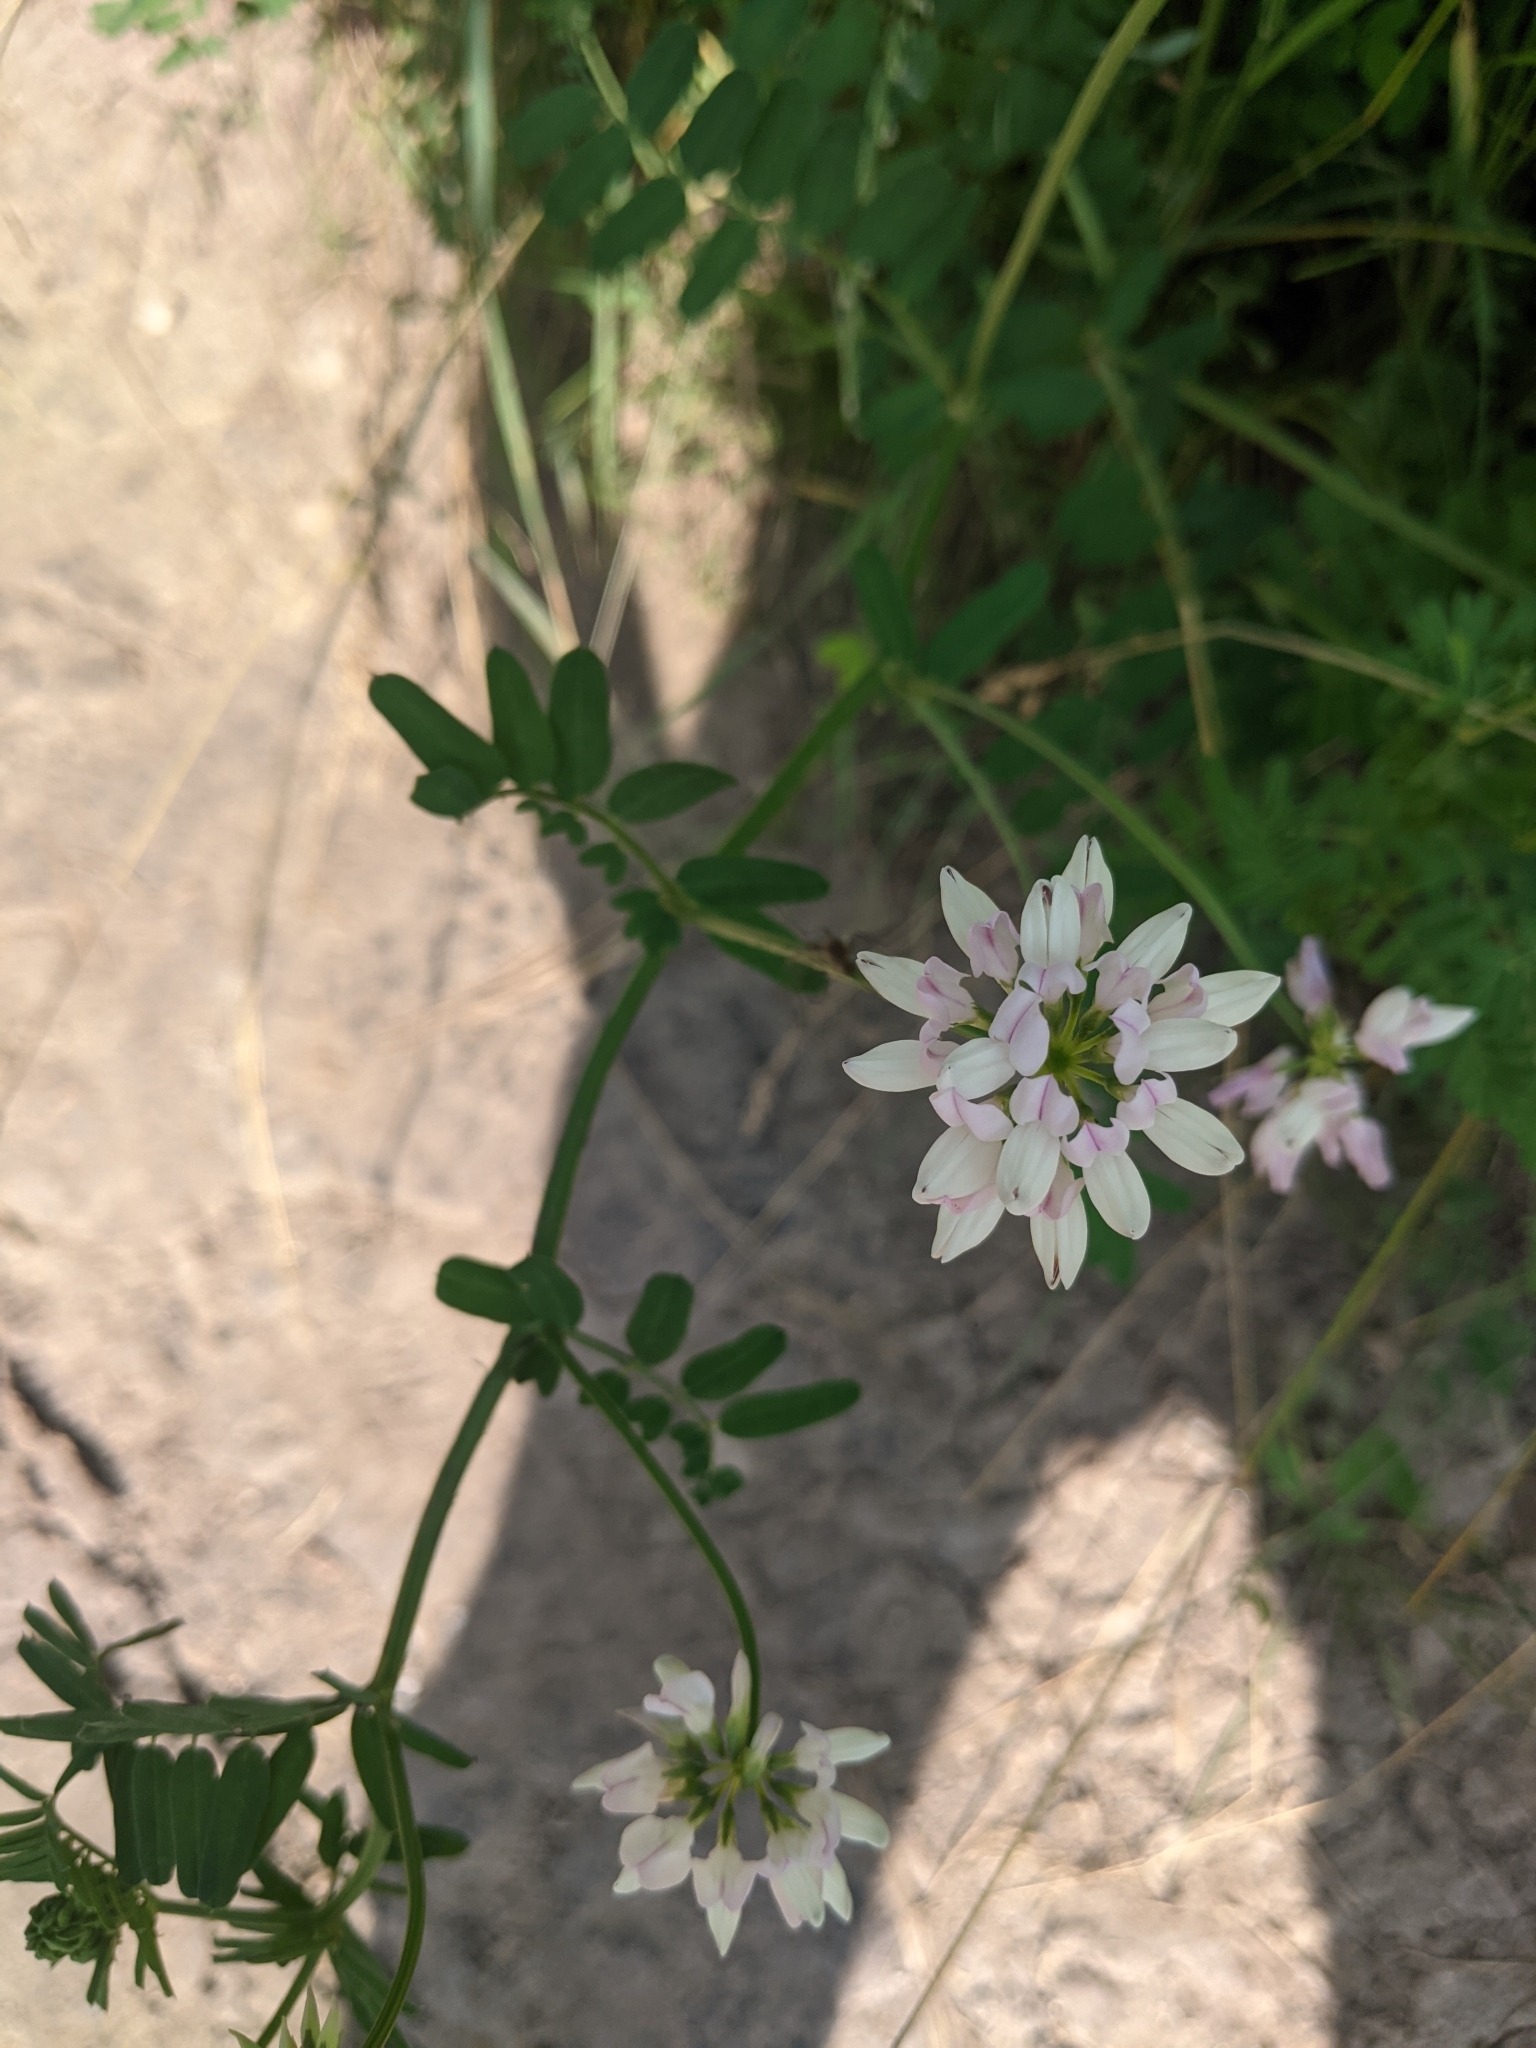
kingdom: Plantae
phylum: Tracheophyta
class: Magnoliopsida
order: Fabales
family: Fabaceae
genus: Coronilla
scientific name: Coronilla varia
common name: Crownvetch
